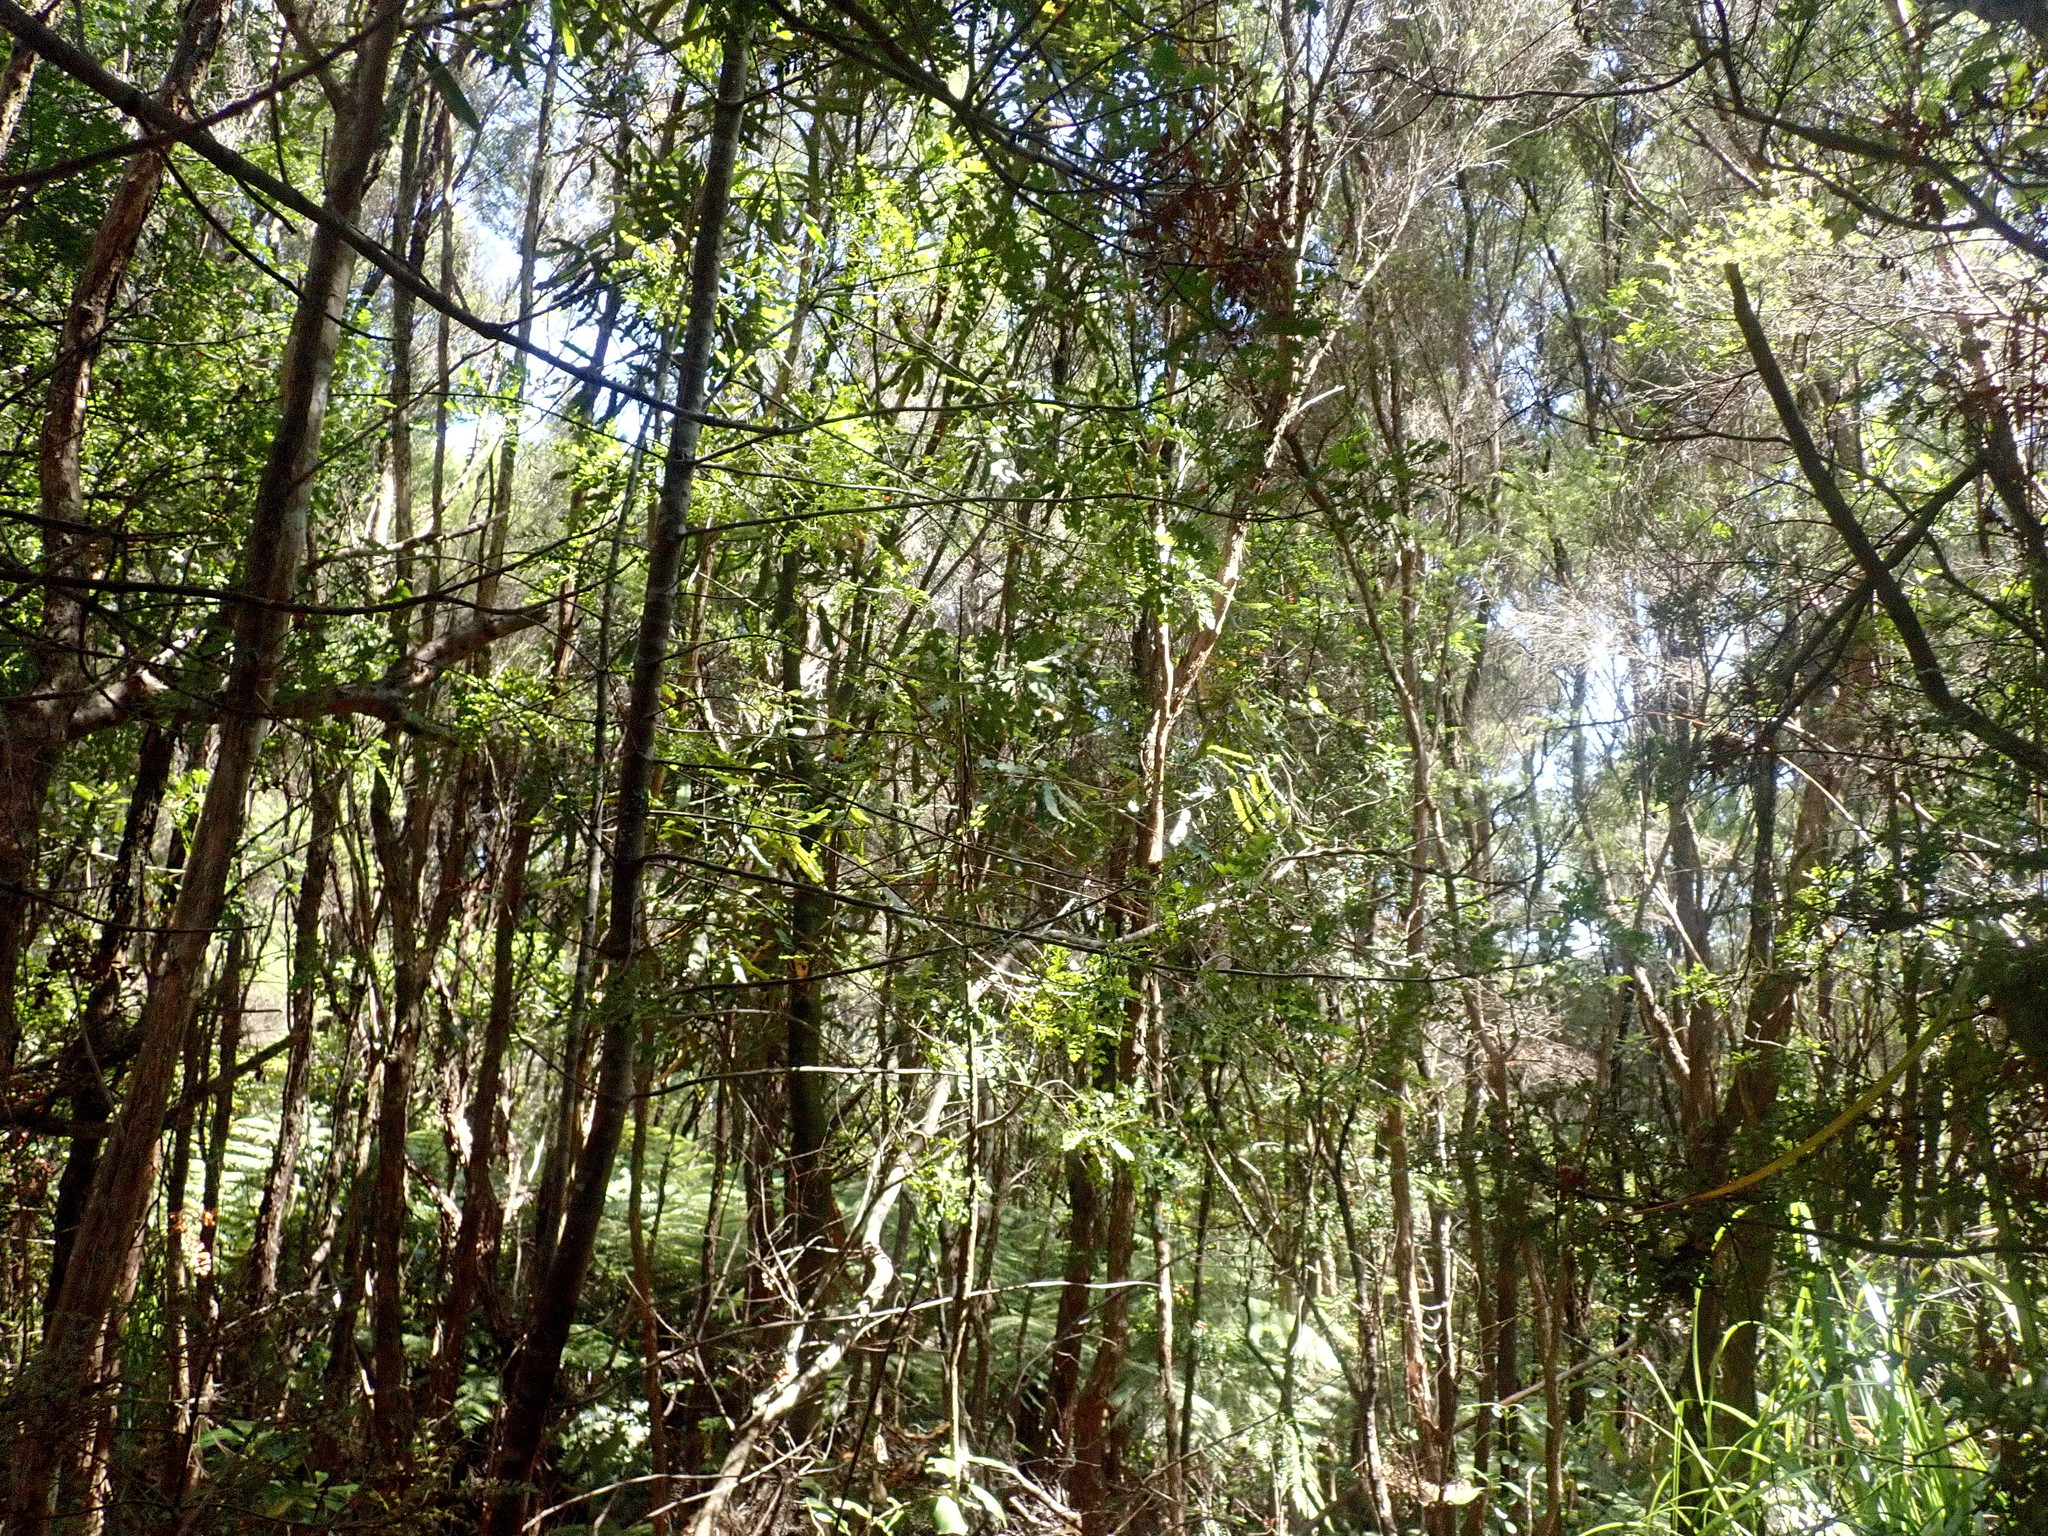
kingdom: Plantae
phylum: Tracheophyta
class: Magnoliopsida
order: Proteales
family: Proteaceae
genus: Knightia
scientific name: Knightia excelsa
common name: New zealand-honeysuckle
